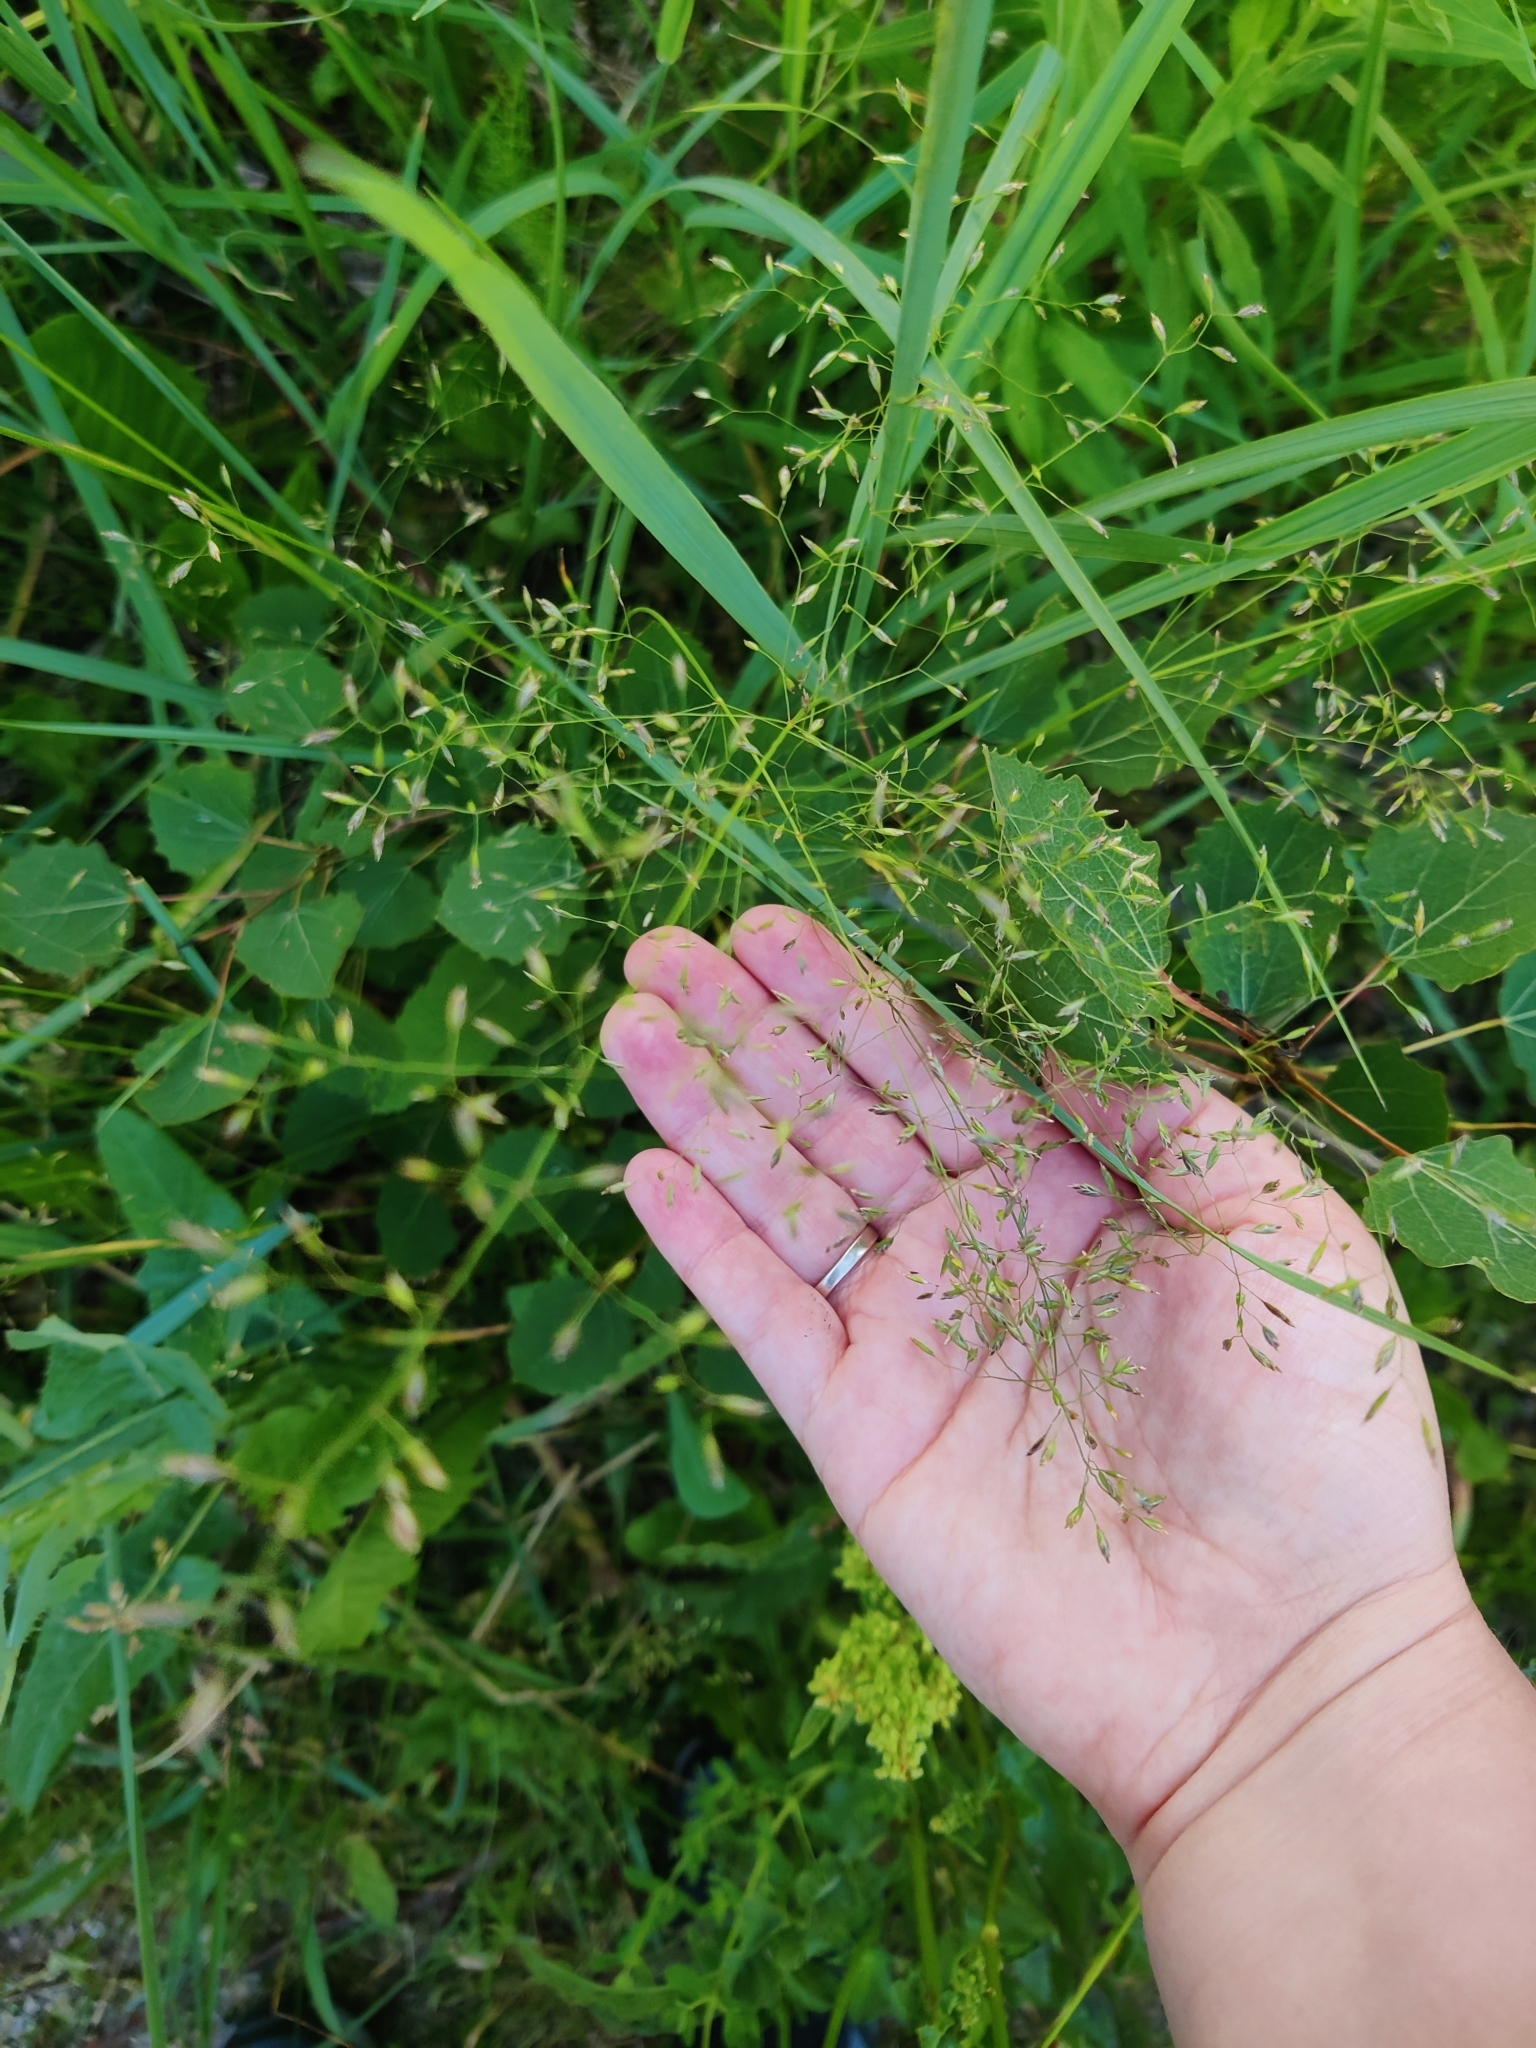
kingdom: Plantae
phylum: Tracheophyta
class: Liliopsida
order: Poales
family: Poaceae
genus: Poa
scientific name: Poa palustris
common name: Swamp meadow-grass
